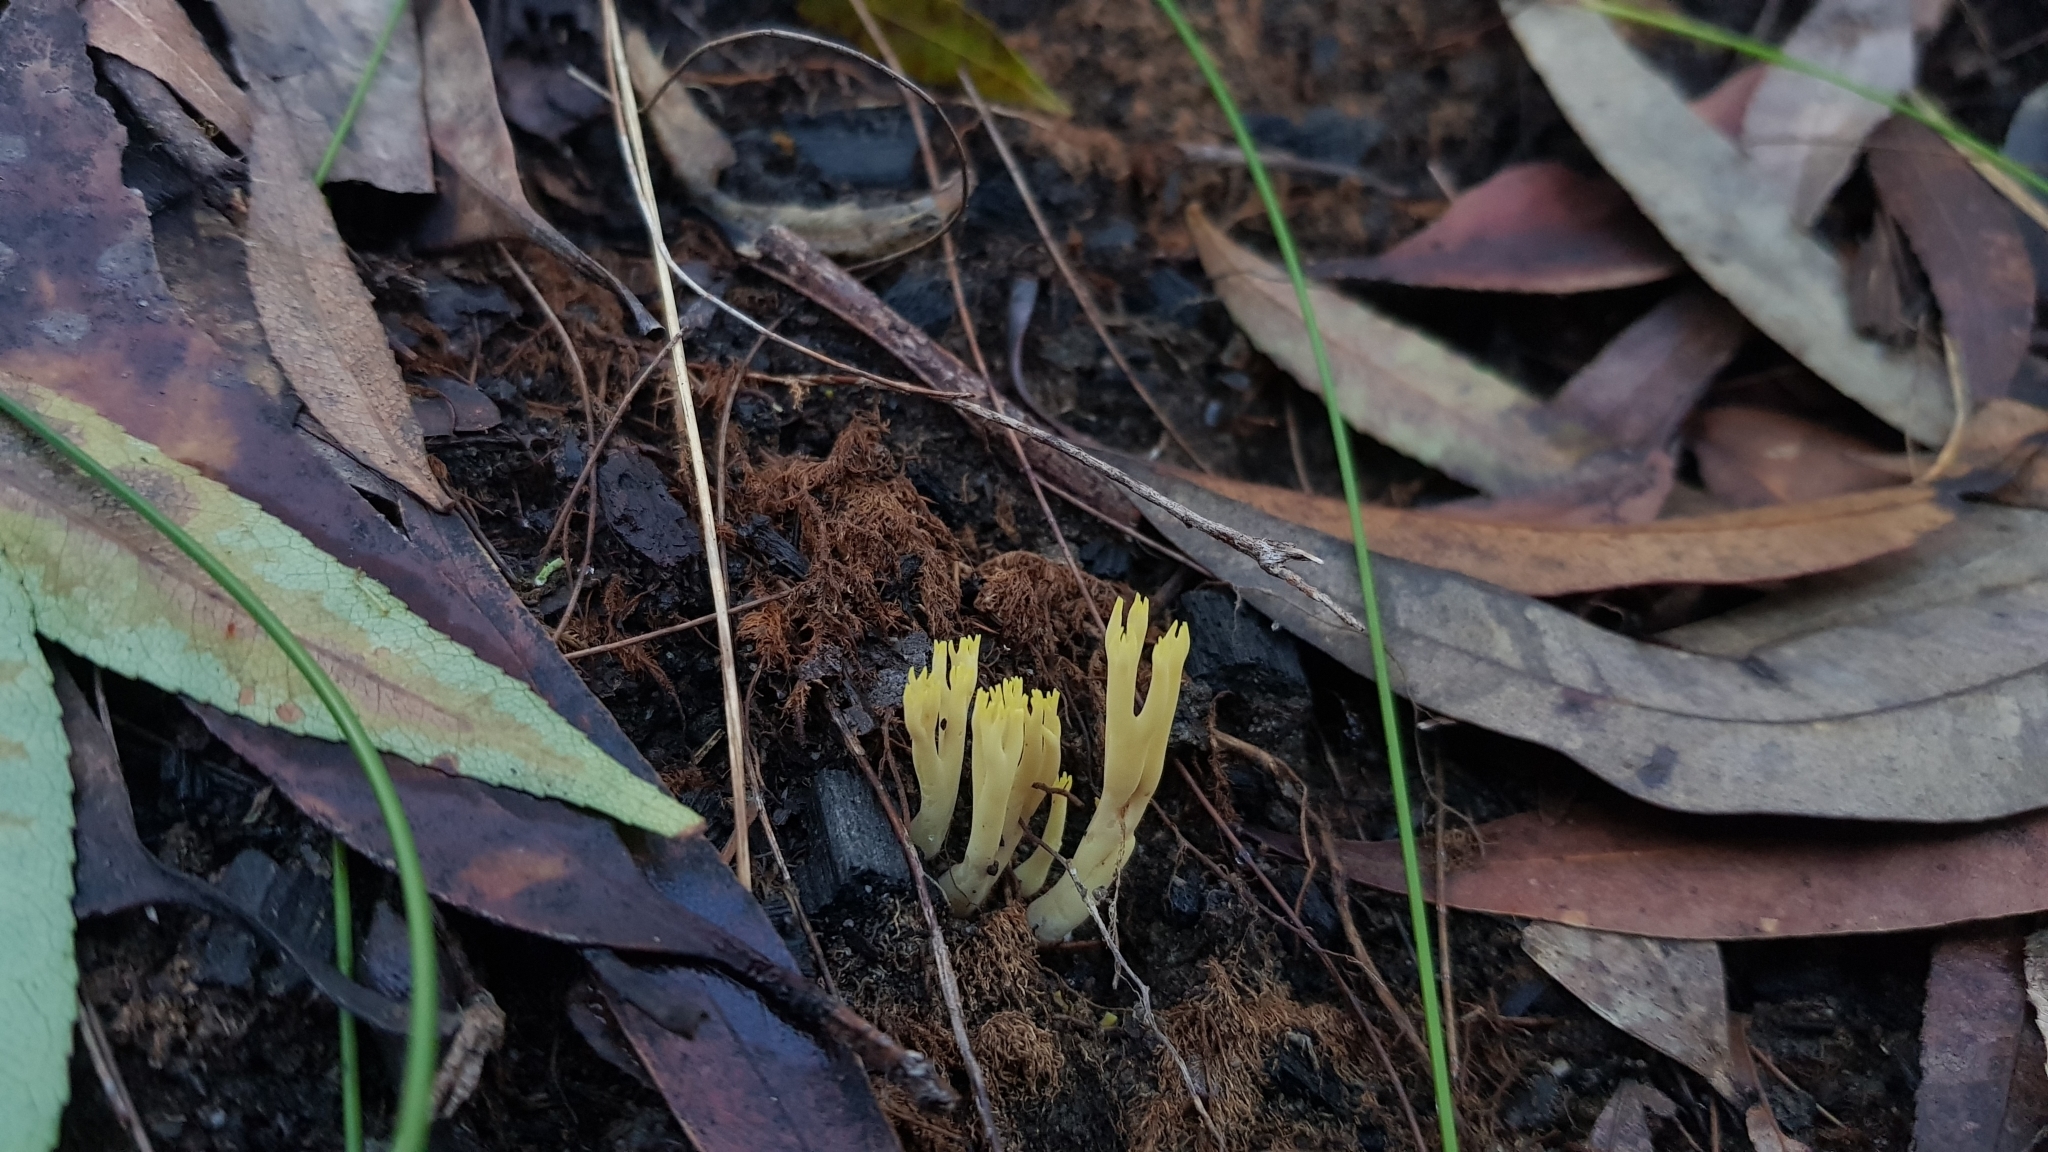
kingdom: Fungi
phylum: Basidiomycota
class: Agaricomycetes
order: Gomphales
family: Gomphaceae
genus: Ramaria
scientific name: Ramaria lorithamnus
